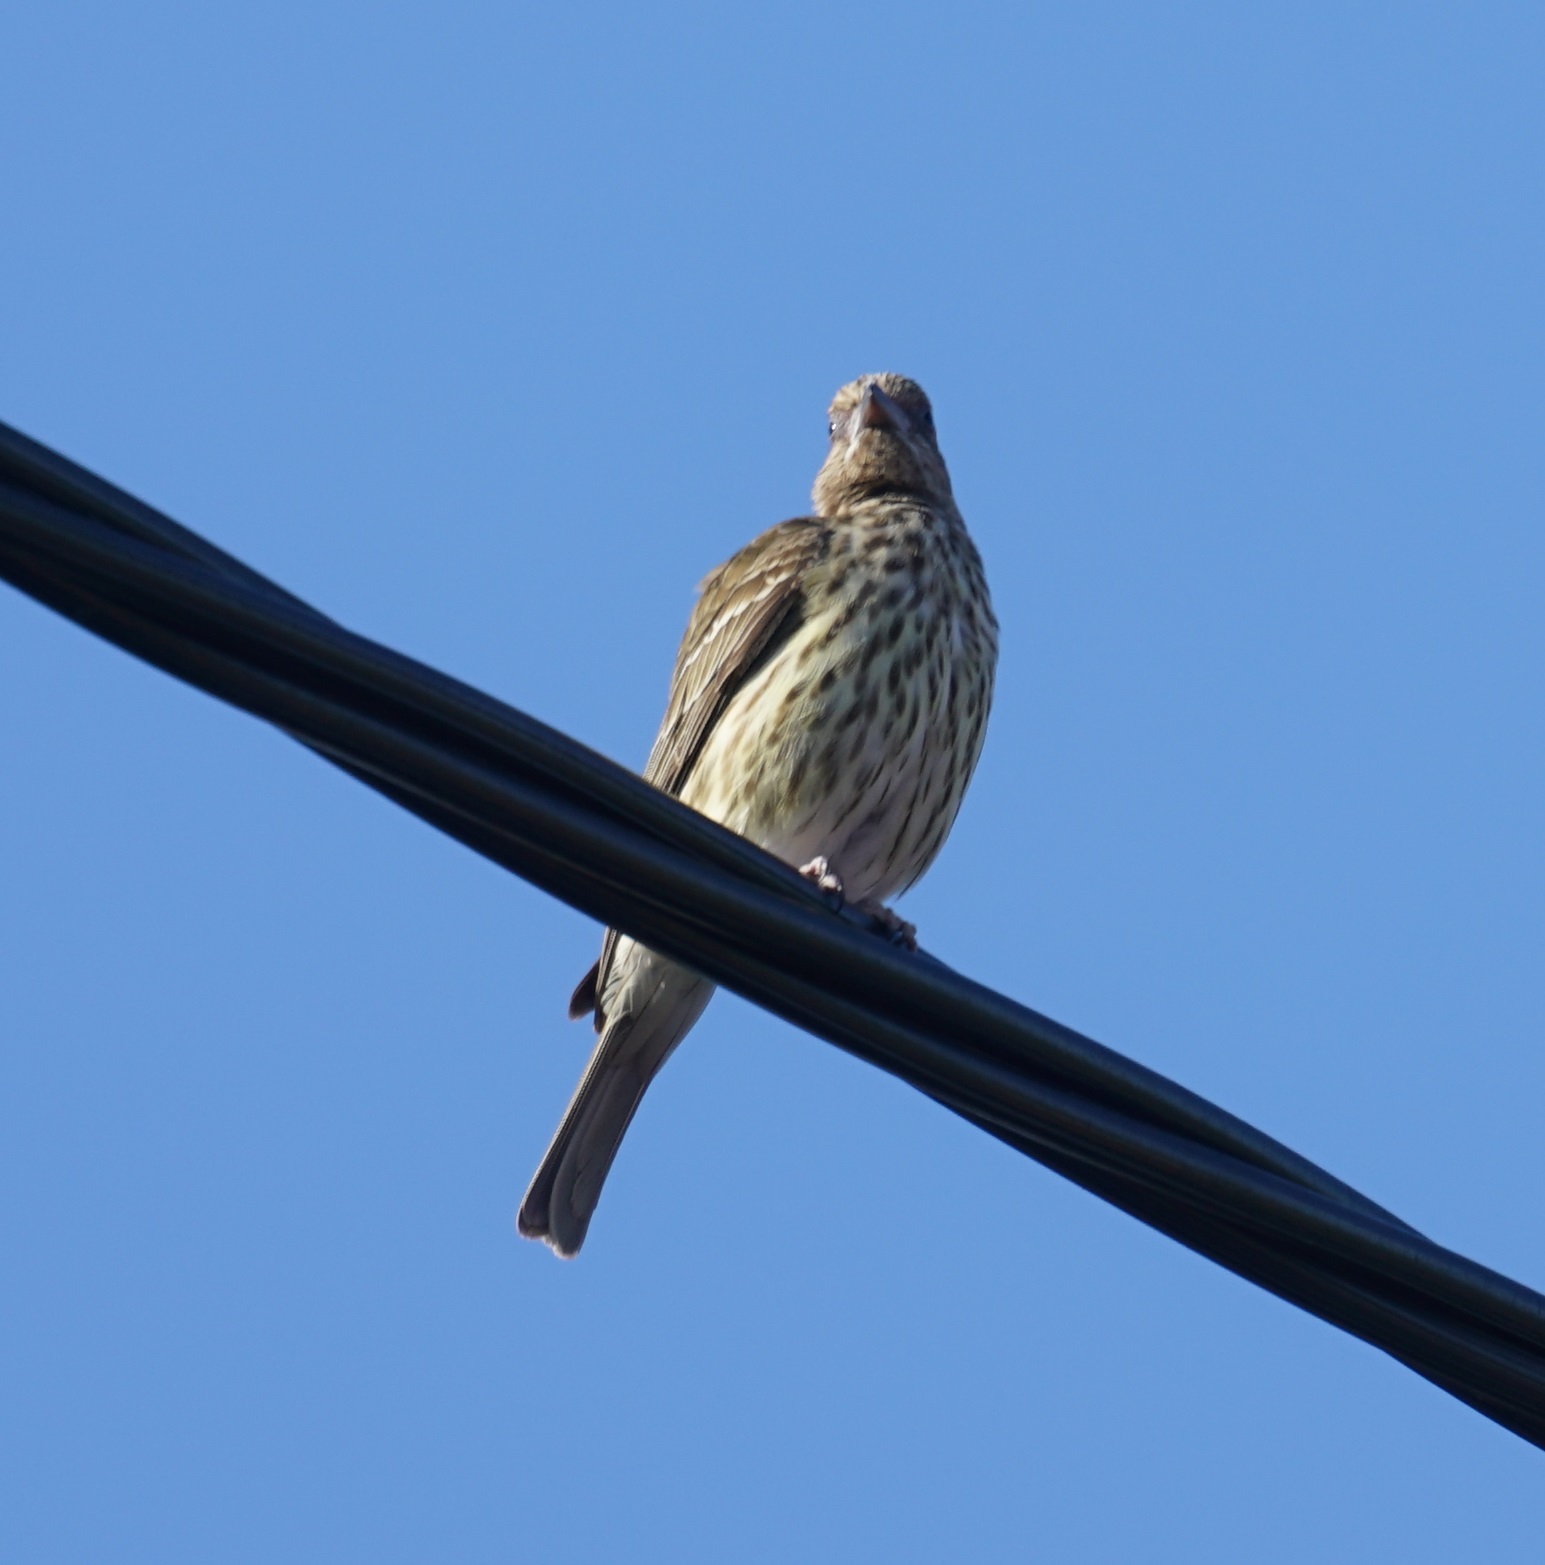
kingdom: Animalia
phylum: Chordata
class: Aves
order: Passeriformes
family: Oriolidae
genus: Sphecotheres
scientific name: Sphecotheres vieilloti
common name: Australasian figbird
